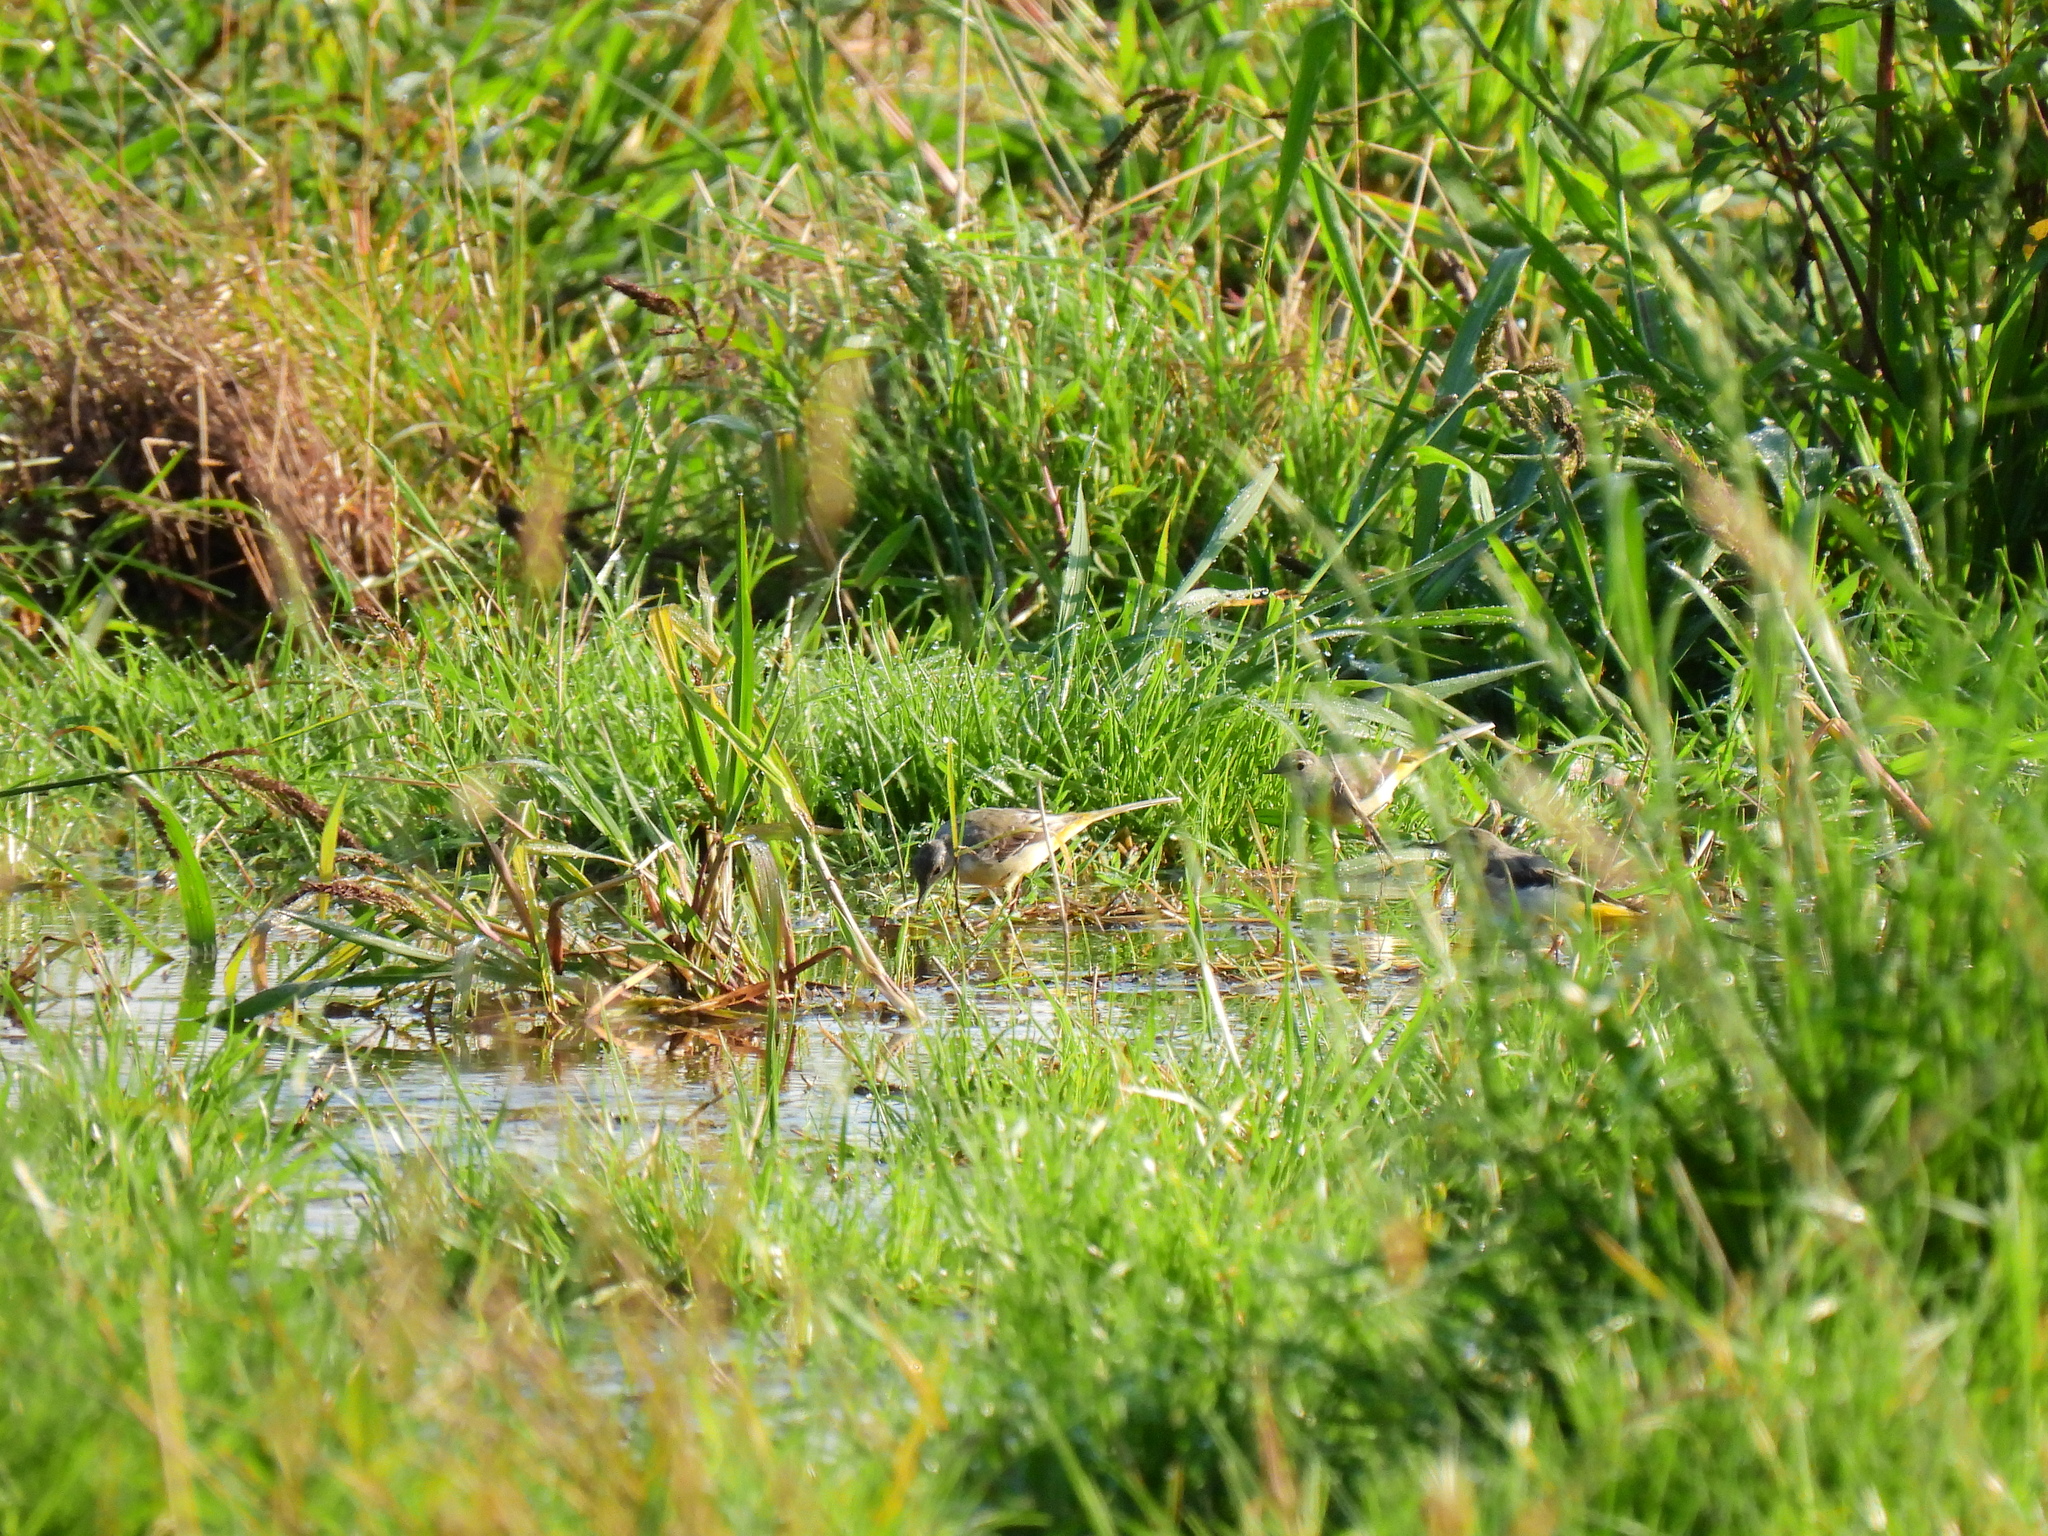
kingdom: Animalia
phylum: Chordata
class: Aves
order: Passeriformes
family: Motacillidae
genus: Motacilla
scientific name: Motacilla cinerea
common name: Grey wagtail
